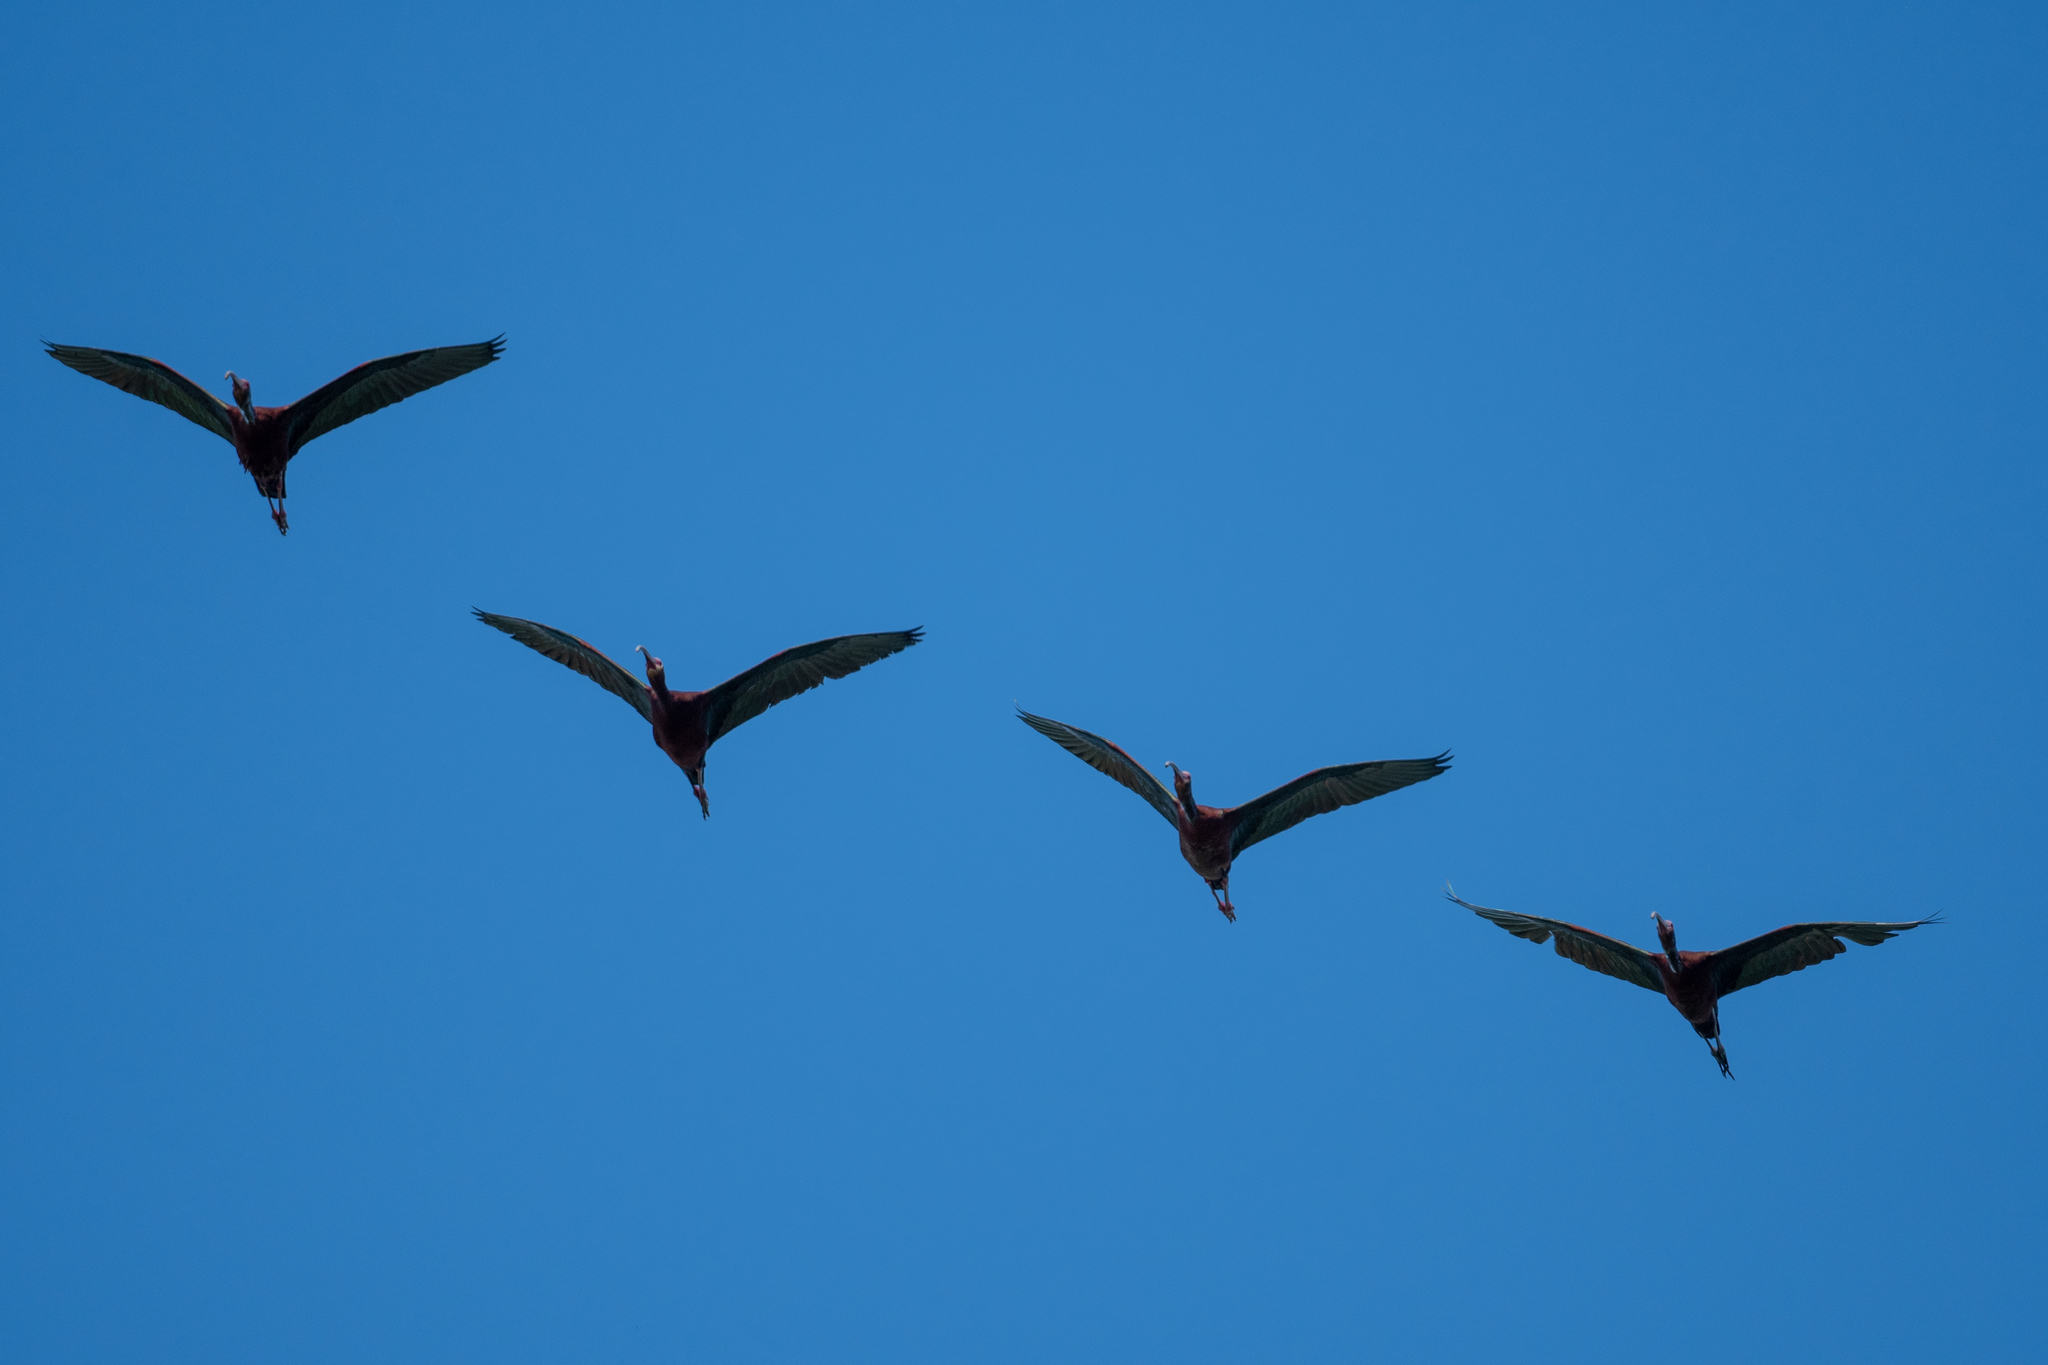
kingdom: Animalia
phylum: Chordata
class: Aves
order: Pelecaniformes
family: Threskiornithidae
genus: Plegadis
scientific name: Plegadis chihi
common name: White-faced ibis
